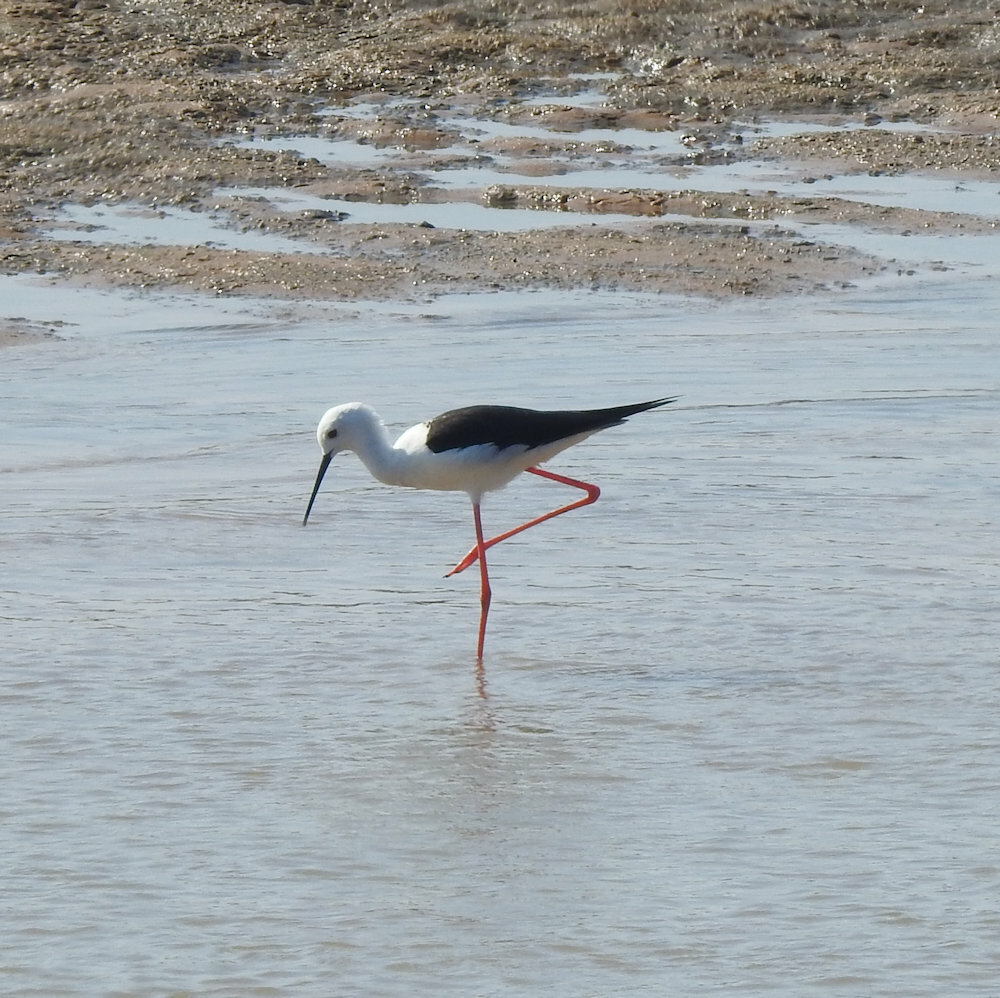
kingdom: Animalia
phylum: Chordata
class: Aves
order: Charadriiformes
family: Recurvirostridae
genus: Himantopus
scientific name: Himantopus himantopus
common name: Black-winged stilt
